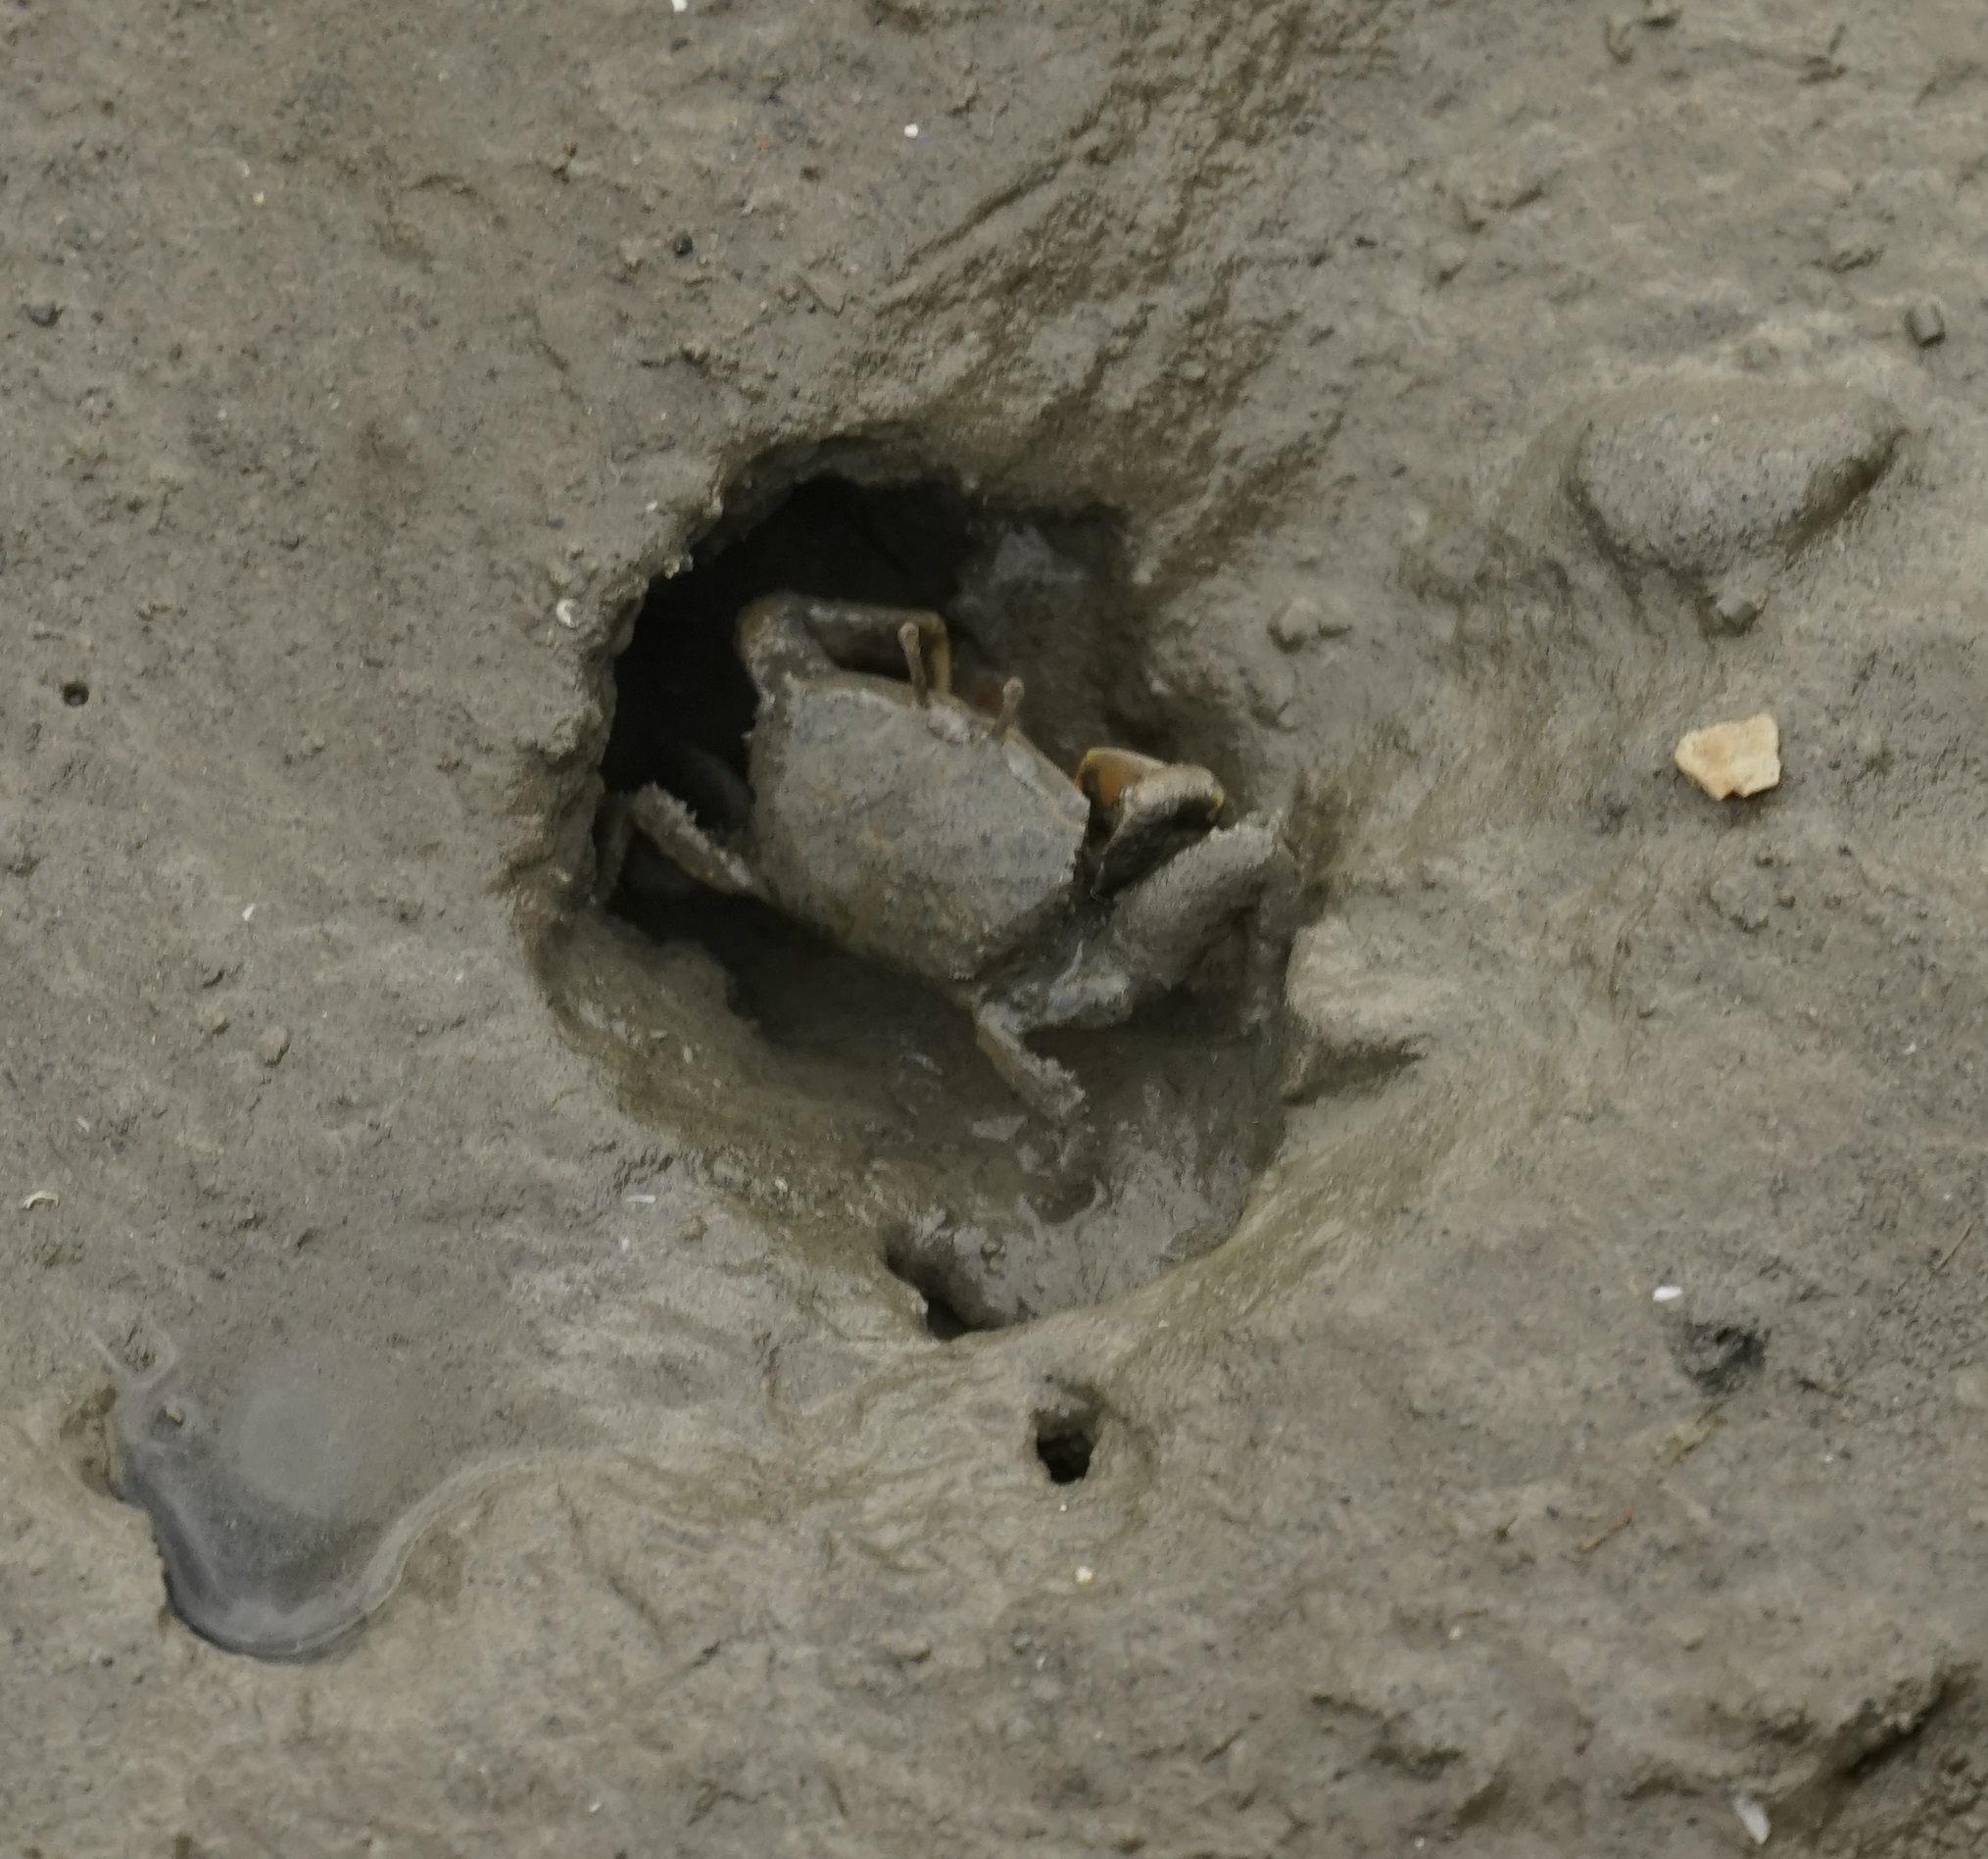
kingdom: Animalia
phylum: Arthropoda
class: Malacostraca
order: Decapoda
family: Macrophthalmidae
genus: Macrophthalmus
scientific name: Macrophthalmus banzai
